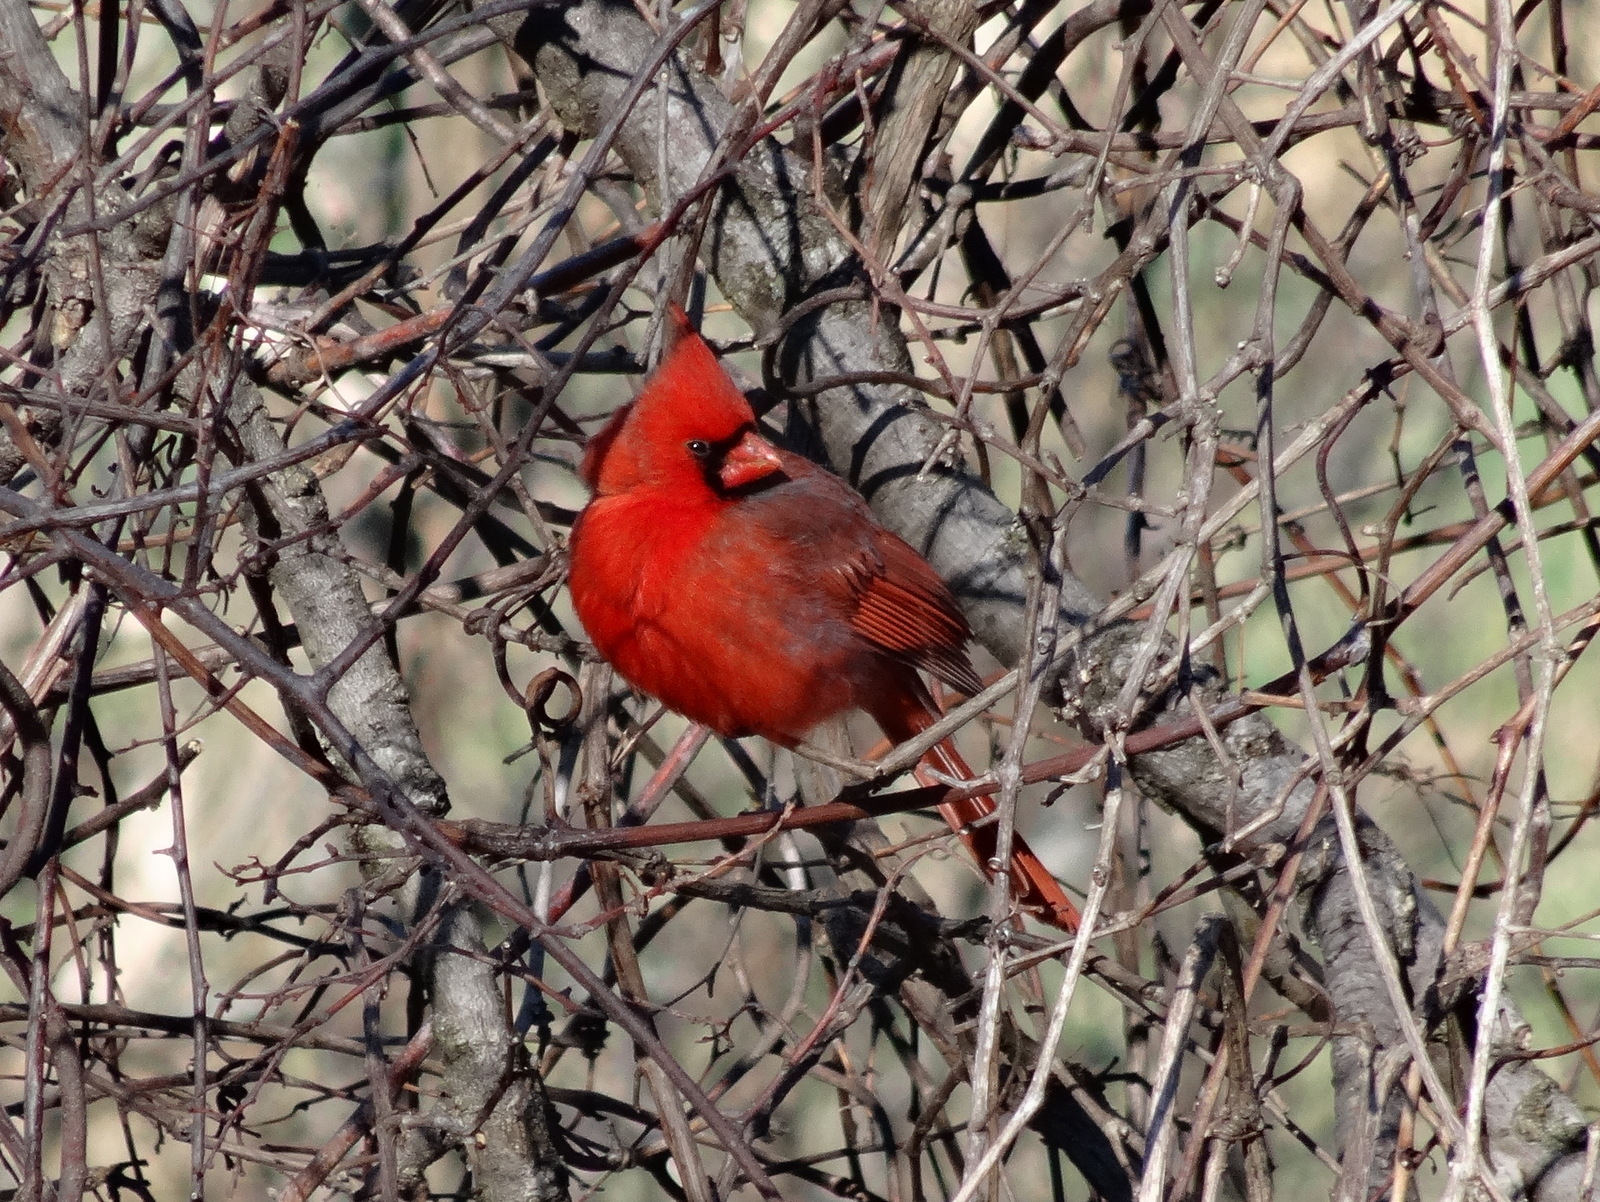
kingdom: Animalia
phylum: Chordata
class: Aves
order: Passeriformes
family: Cardinalidae
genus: Cardinalis
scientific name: Cardinalis cardinalis
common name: Northern cardinal
